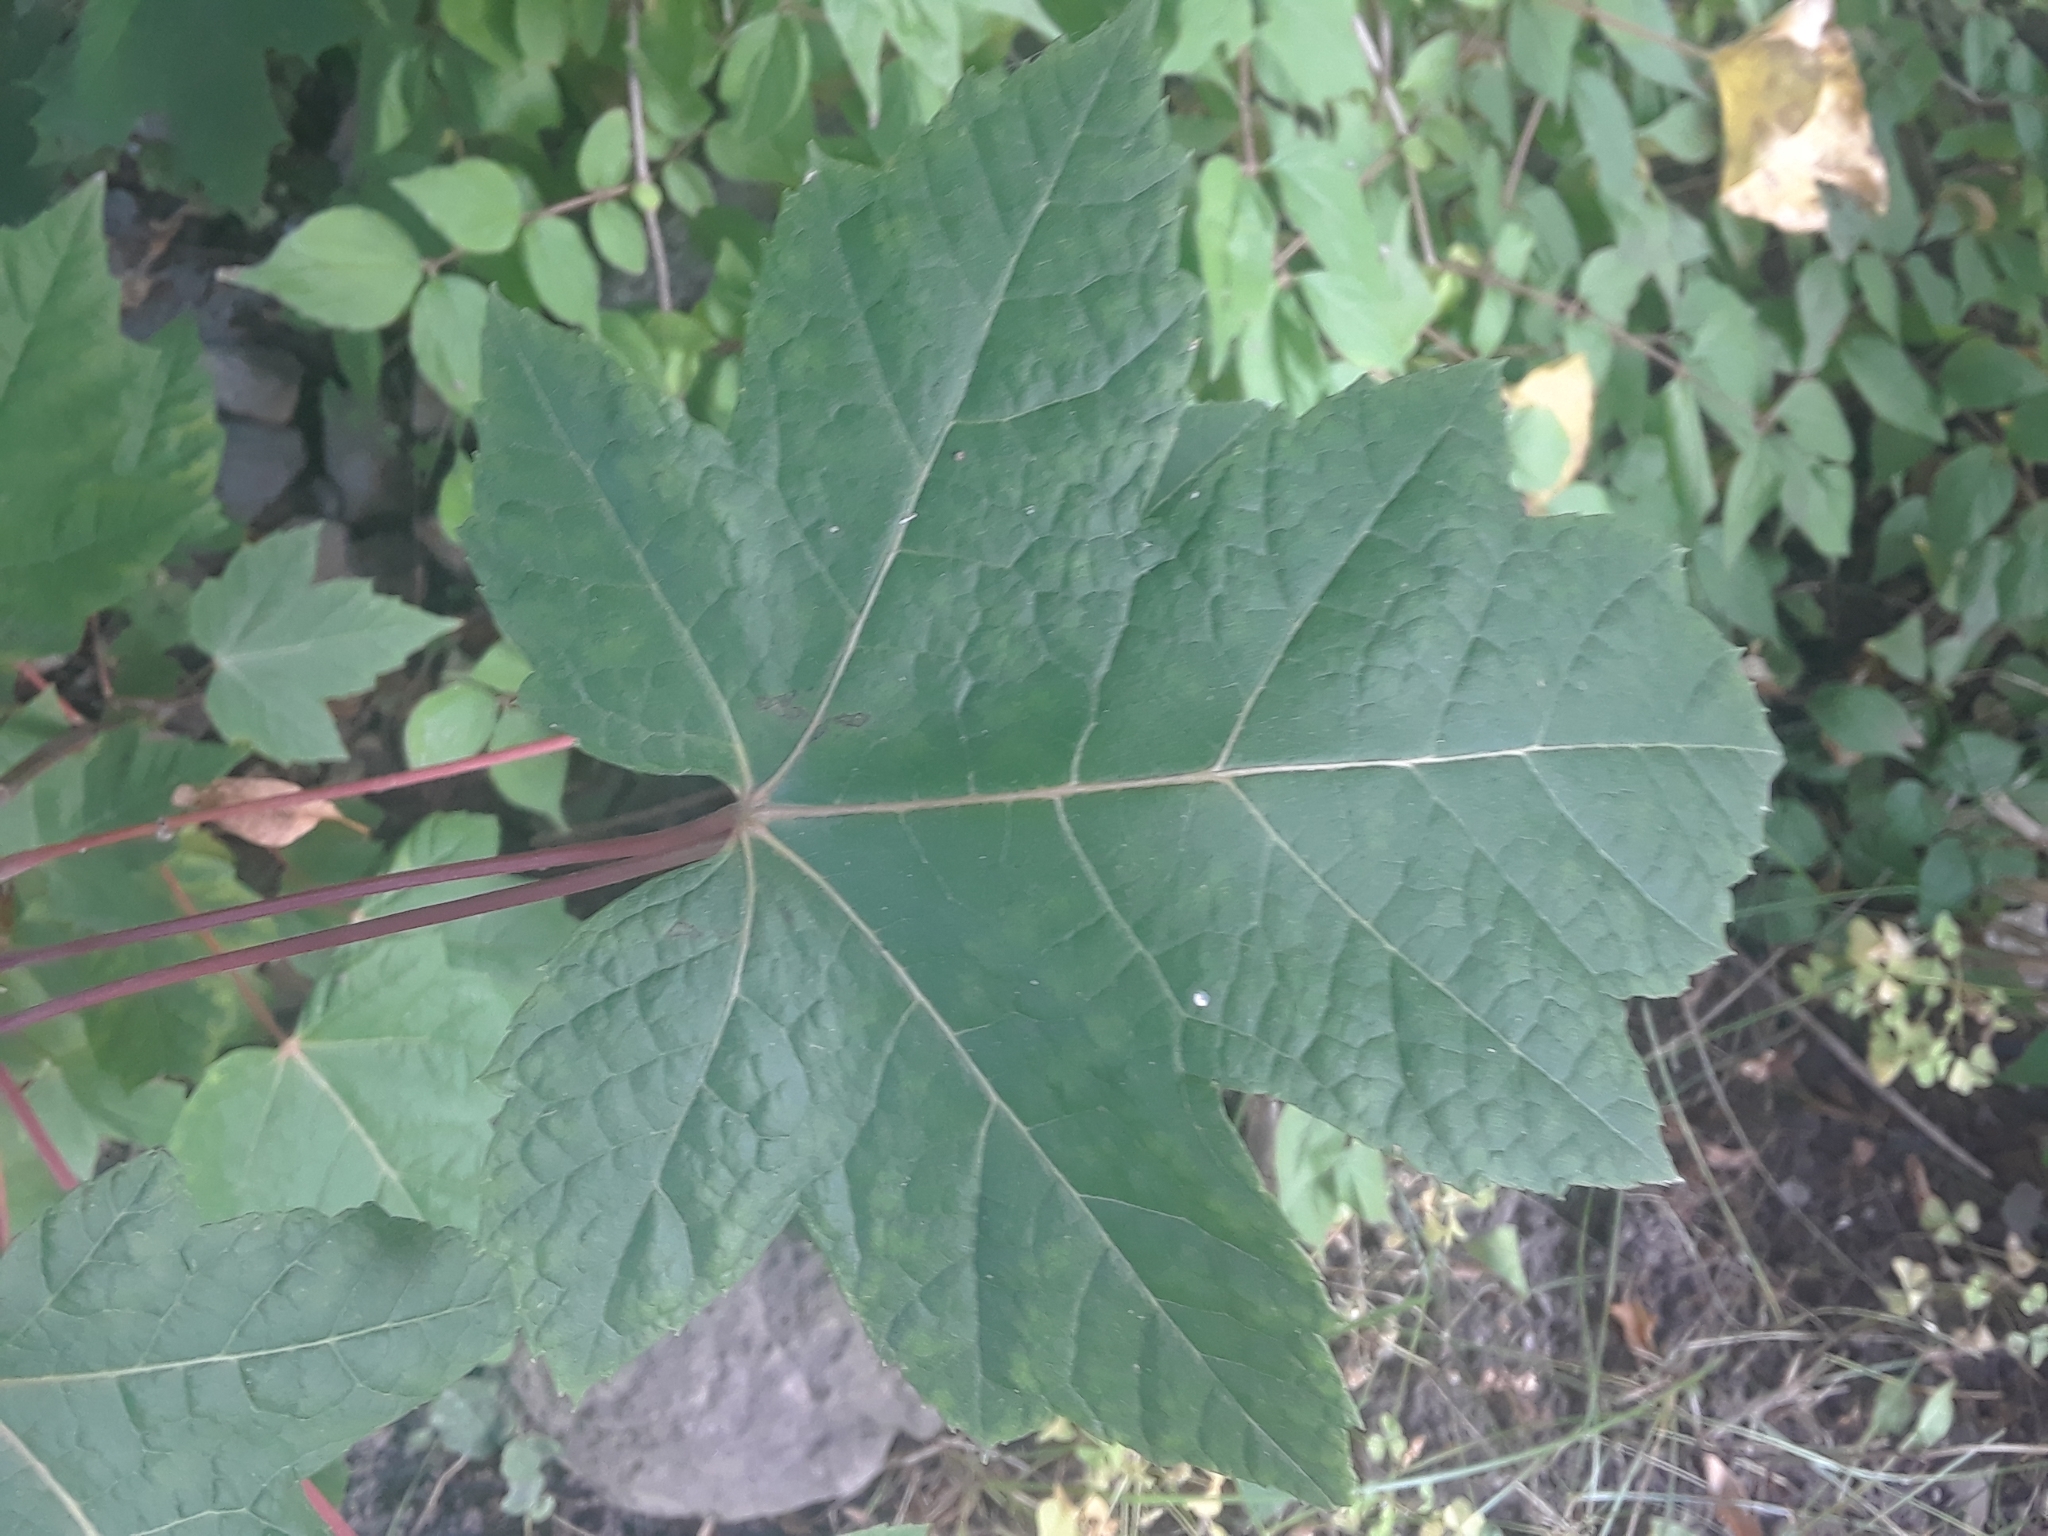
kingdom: Plantae
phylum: Tracheophyta
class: Magnoliopsida
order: Sapindales
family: Sapindaceae
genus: Acer
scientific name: Acer rubrum
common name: Red maple
